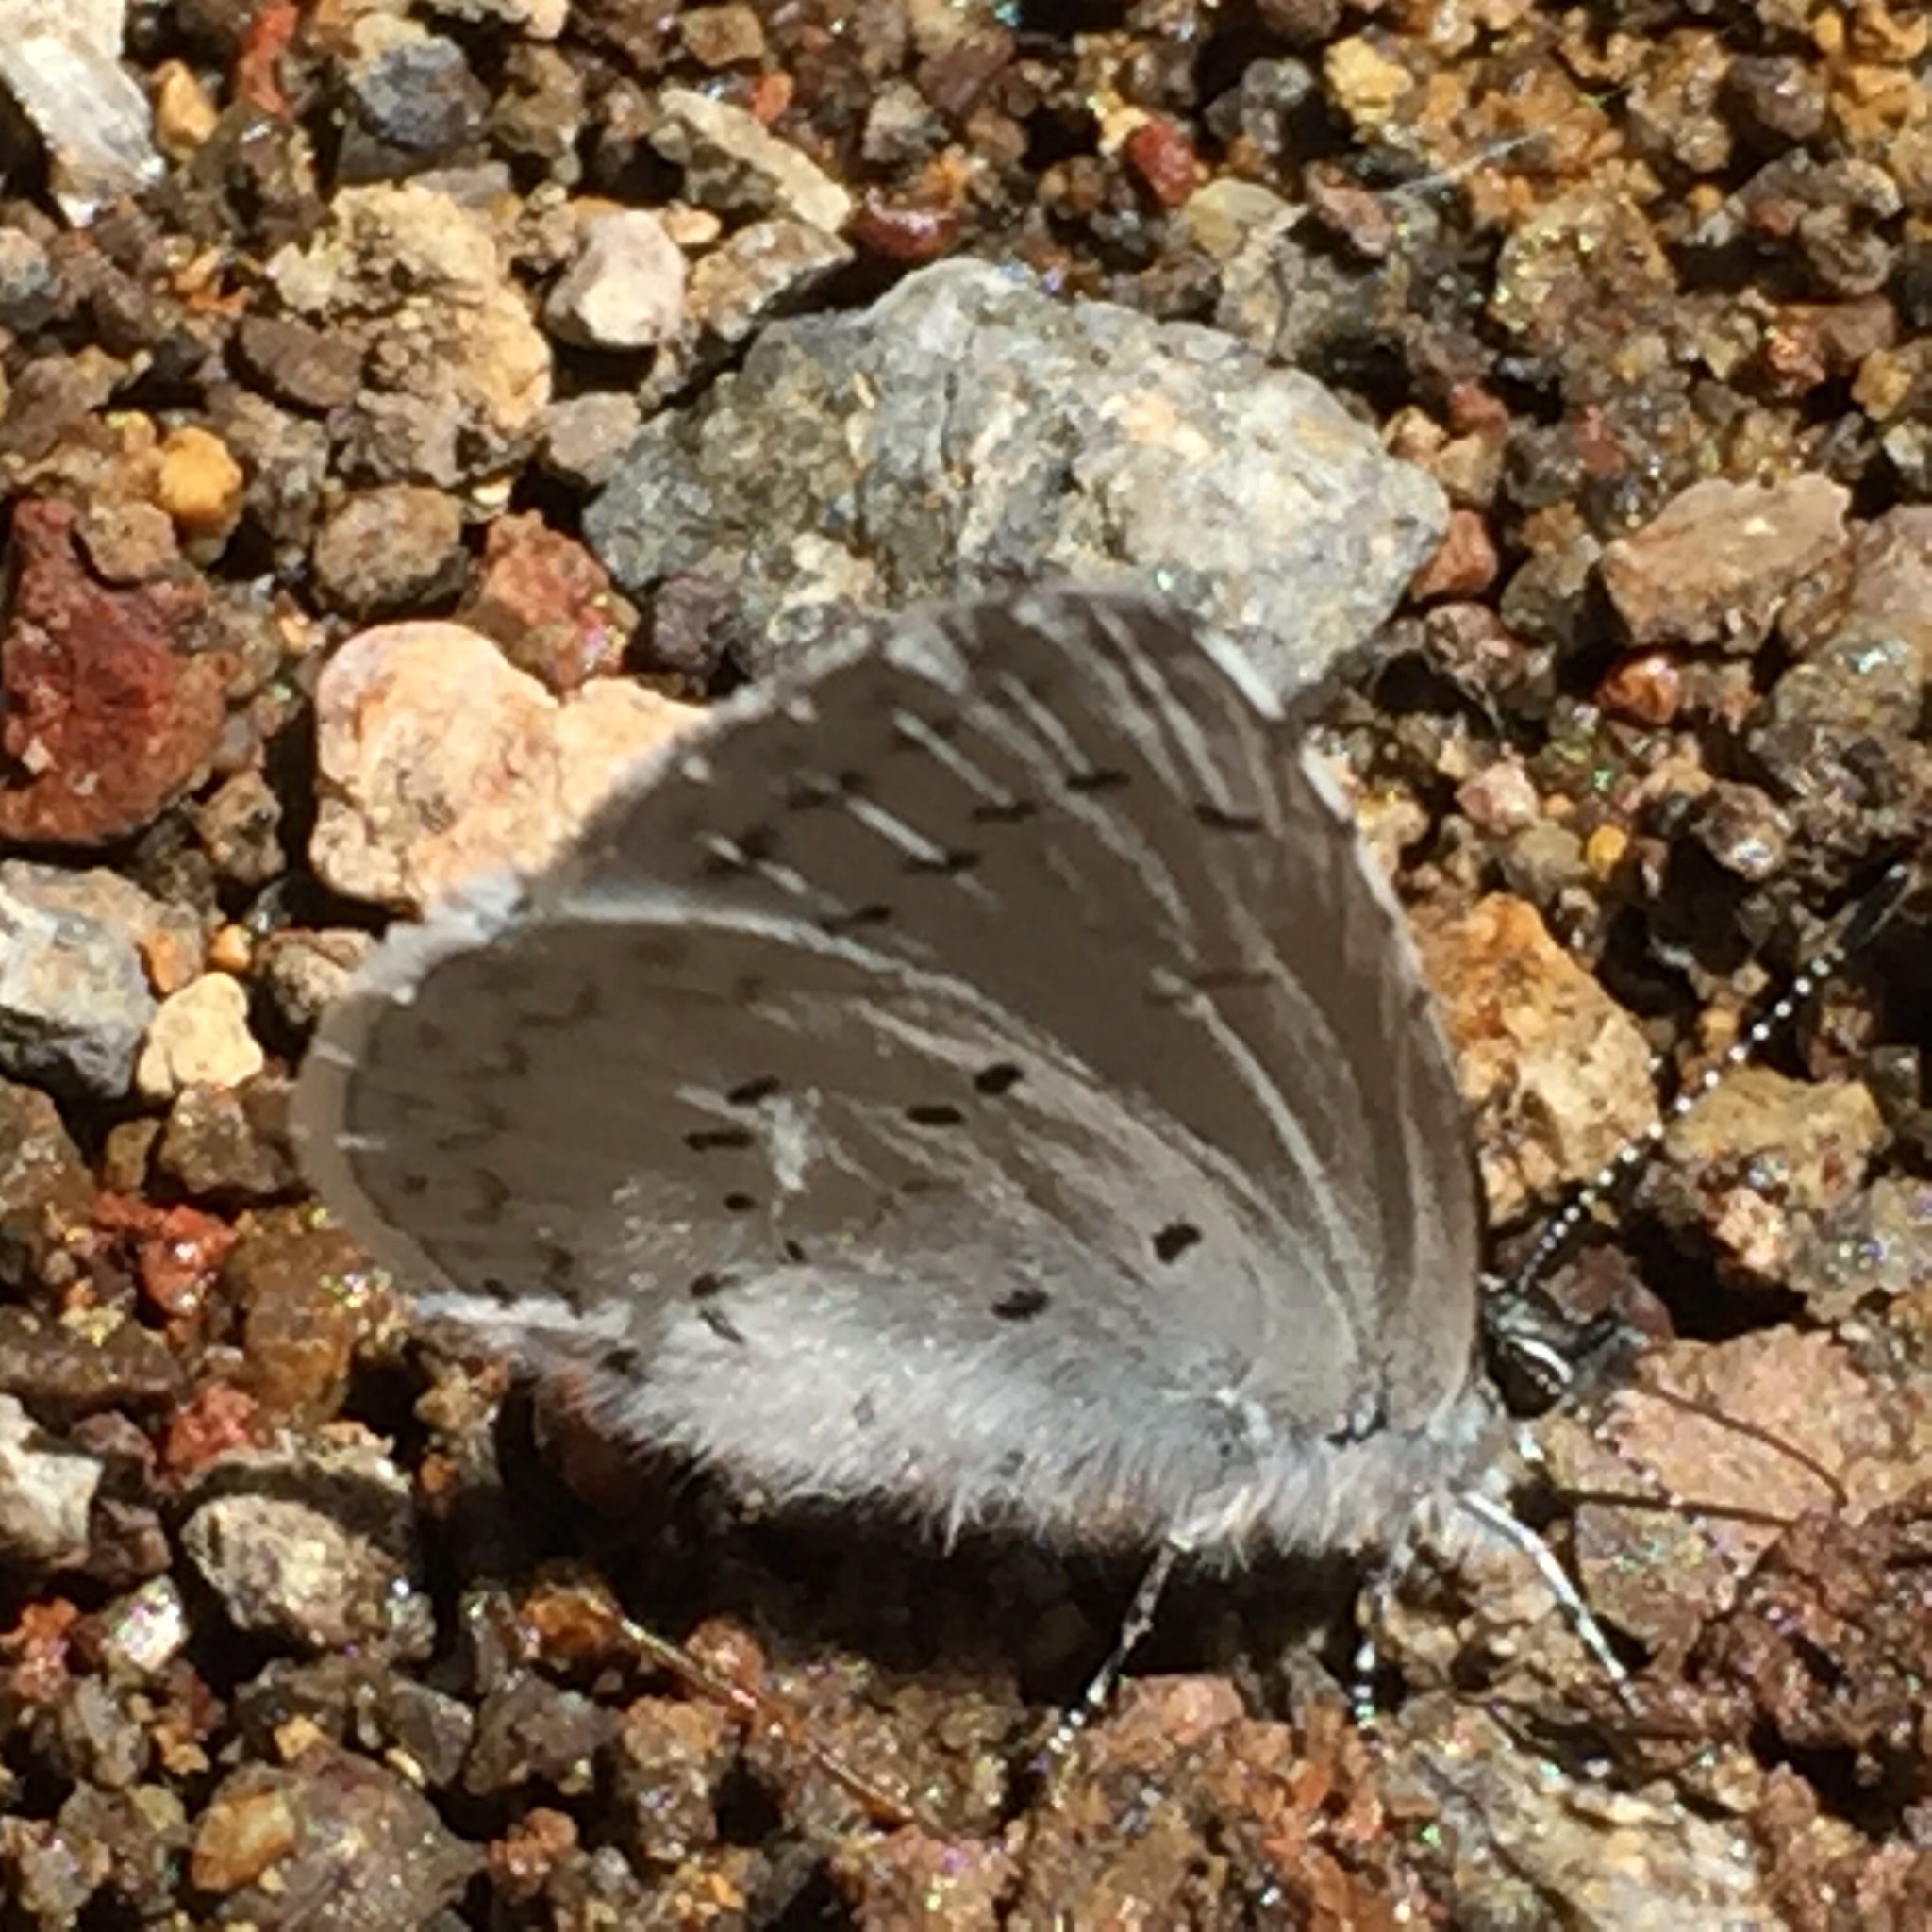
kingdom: Animalia
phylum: Arthropoda
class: Insecta
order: Lepidoptera
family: Lycaenidae
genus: Celastrina
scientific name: Celastrina ladon
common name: Spring azure
